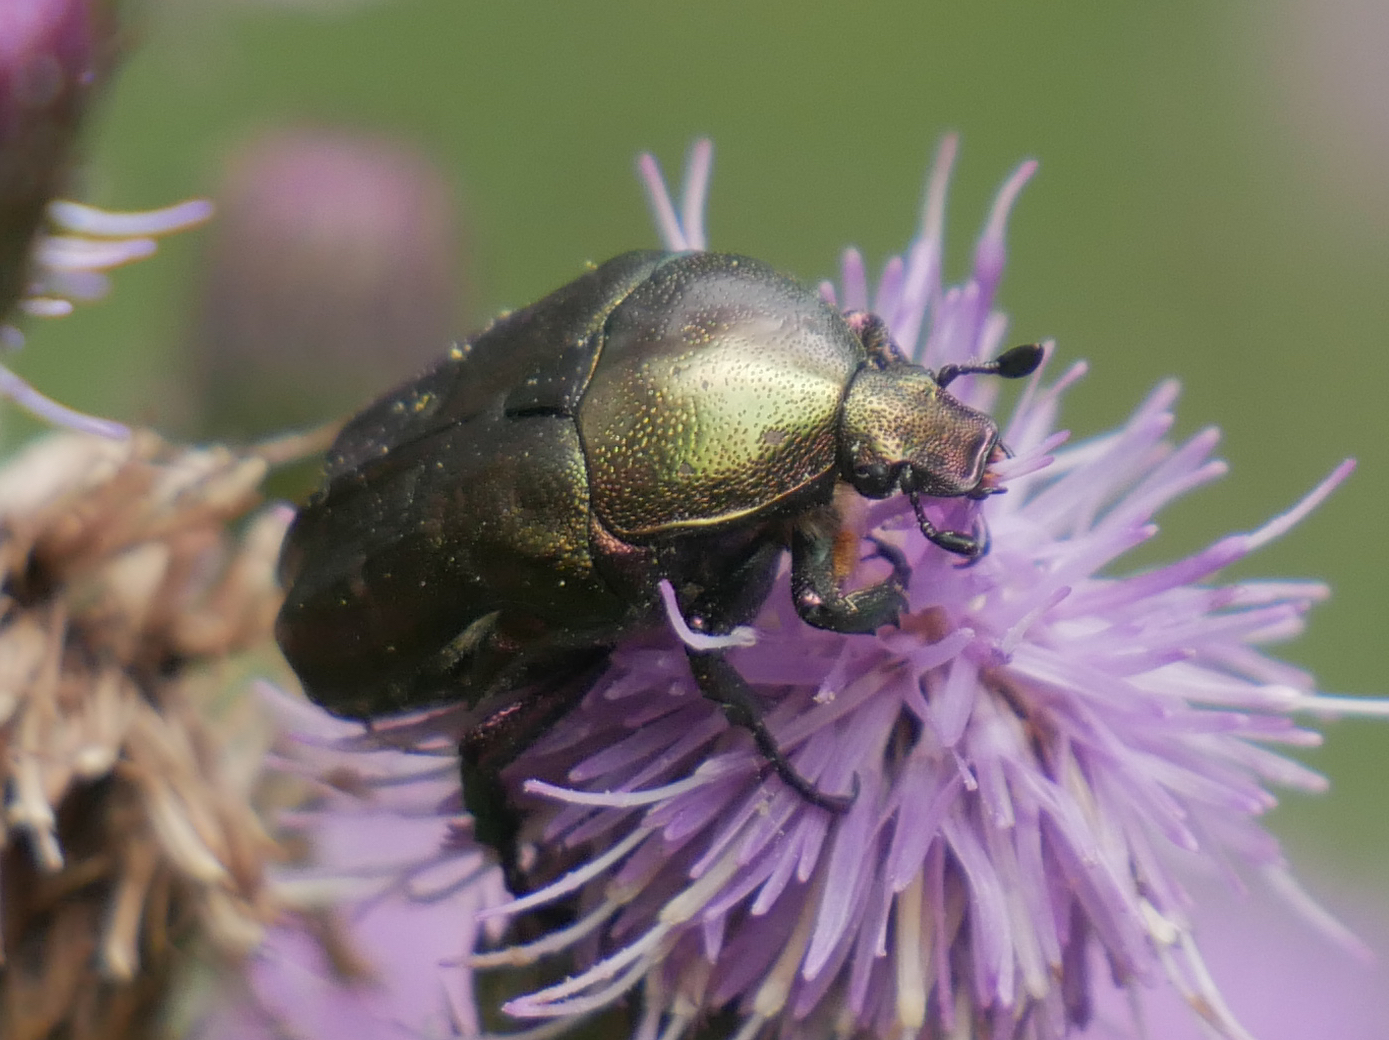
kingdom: Animalia
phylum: Arthropoda
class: Insecta
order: Coleoptera
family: Scarabaeidae
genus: Protaetia
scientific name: Protaetia cuprea
